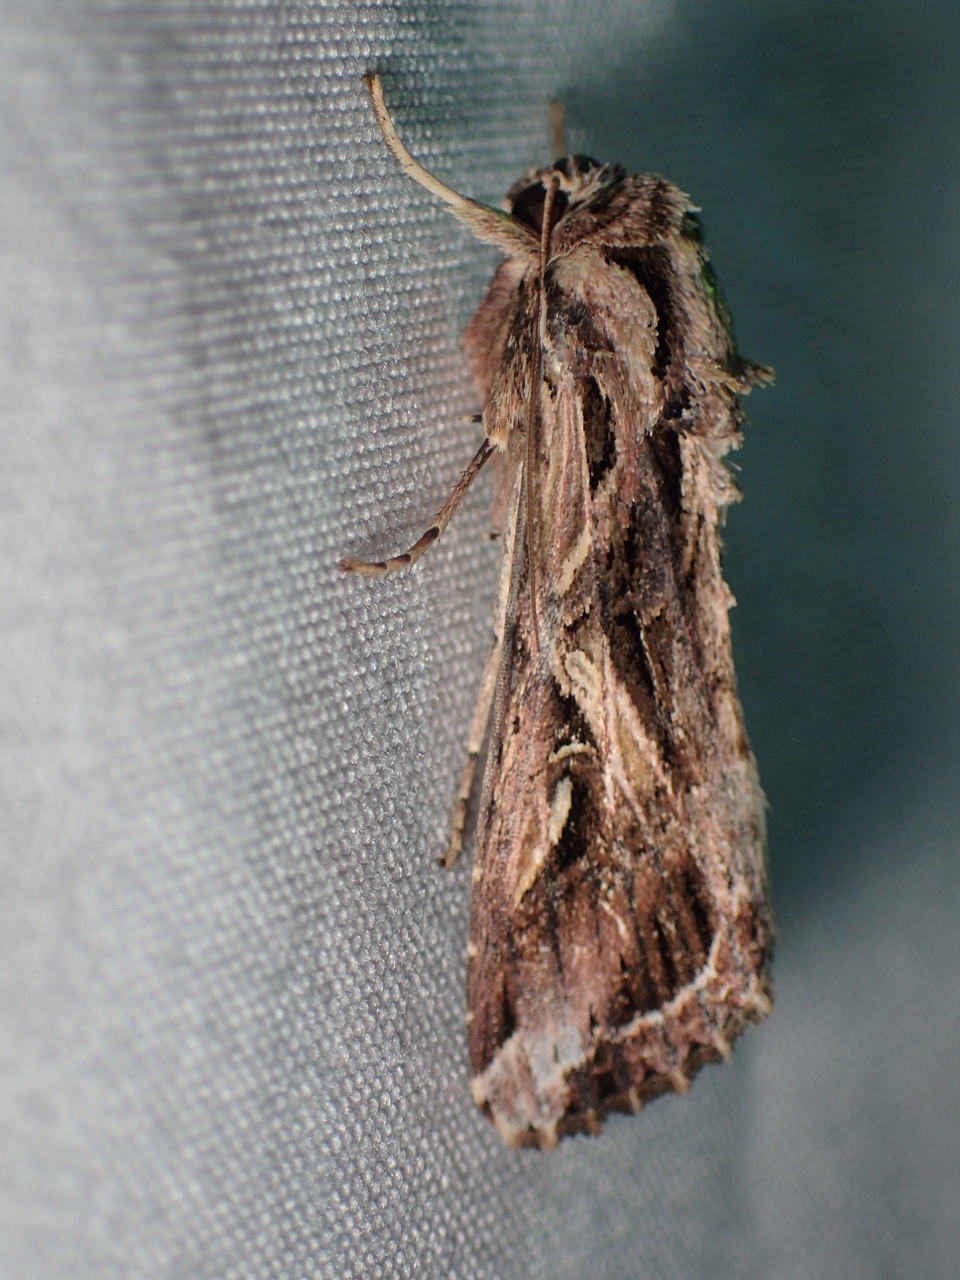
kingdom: Animalia
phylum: Arthropoda
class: Insecta
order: Lepidoptera
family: Noctuidae
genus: Spodoptera
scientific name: Spodoptera dolichos
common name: Sweetpotato armyworm
